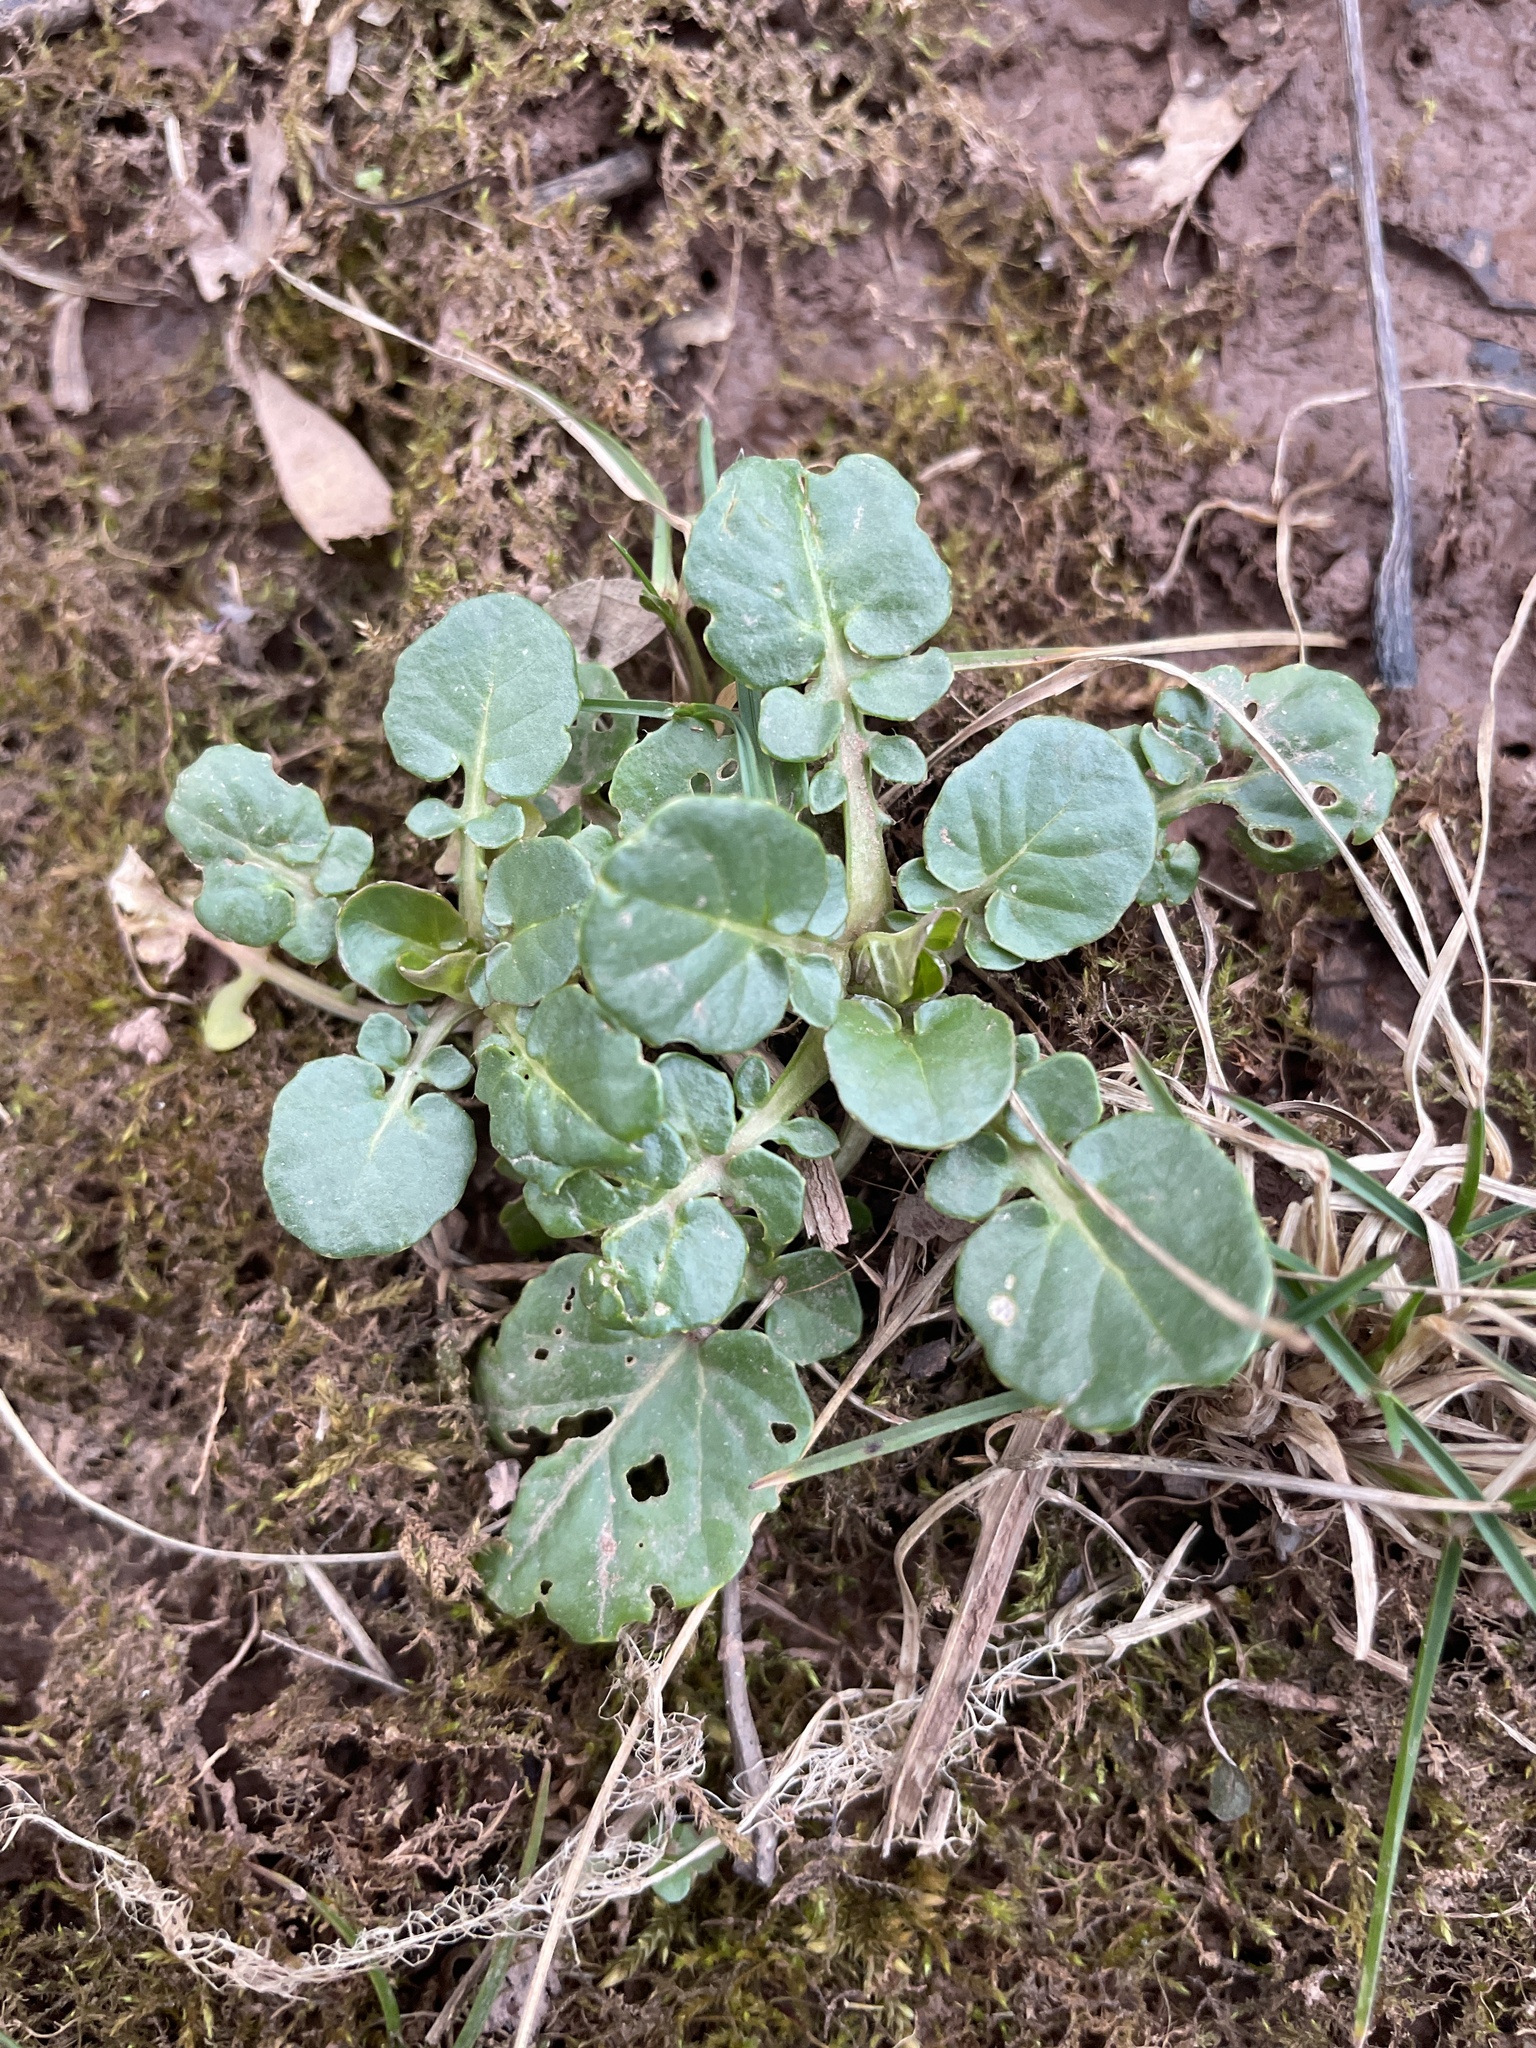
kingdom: Plantae
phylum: Tracheophyta
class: Magnoliopsida
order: Brassicales
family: Brassicaceae
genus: Barbarea
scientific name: Barbarea vulgaris
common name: Cressy-greens
